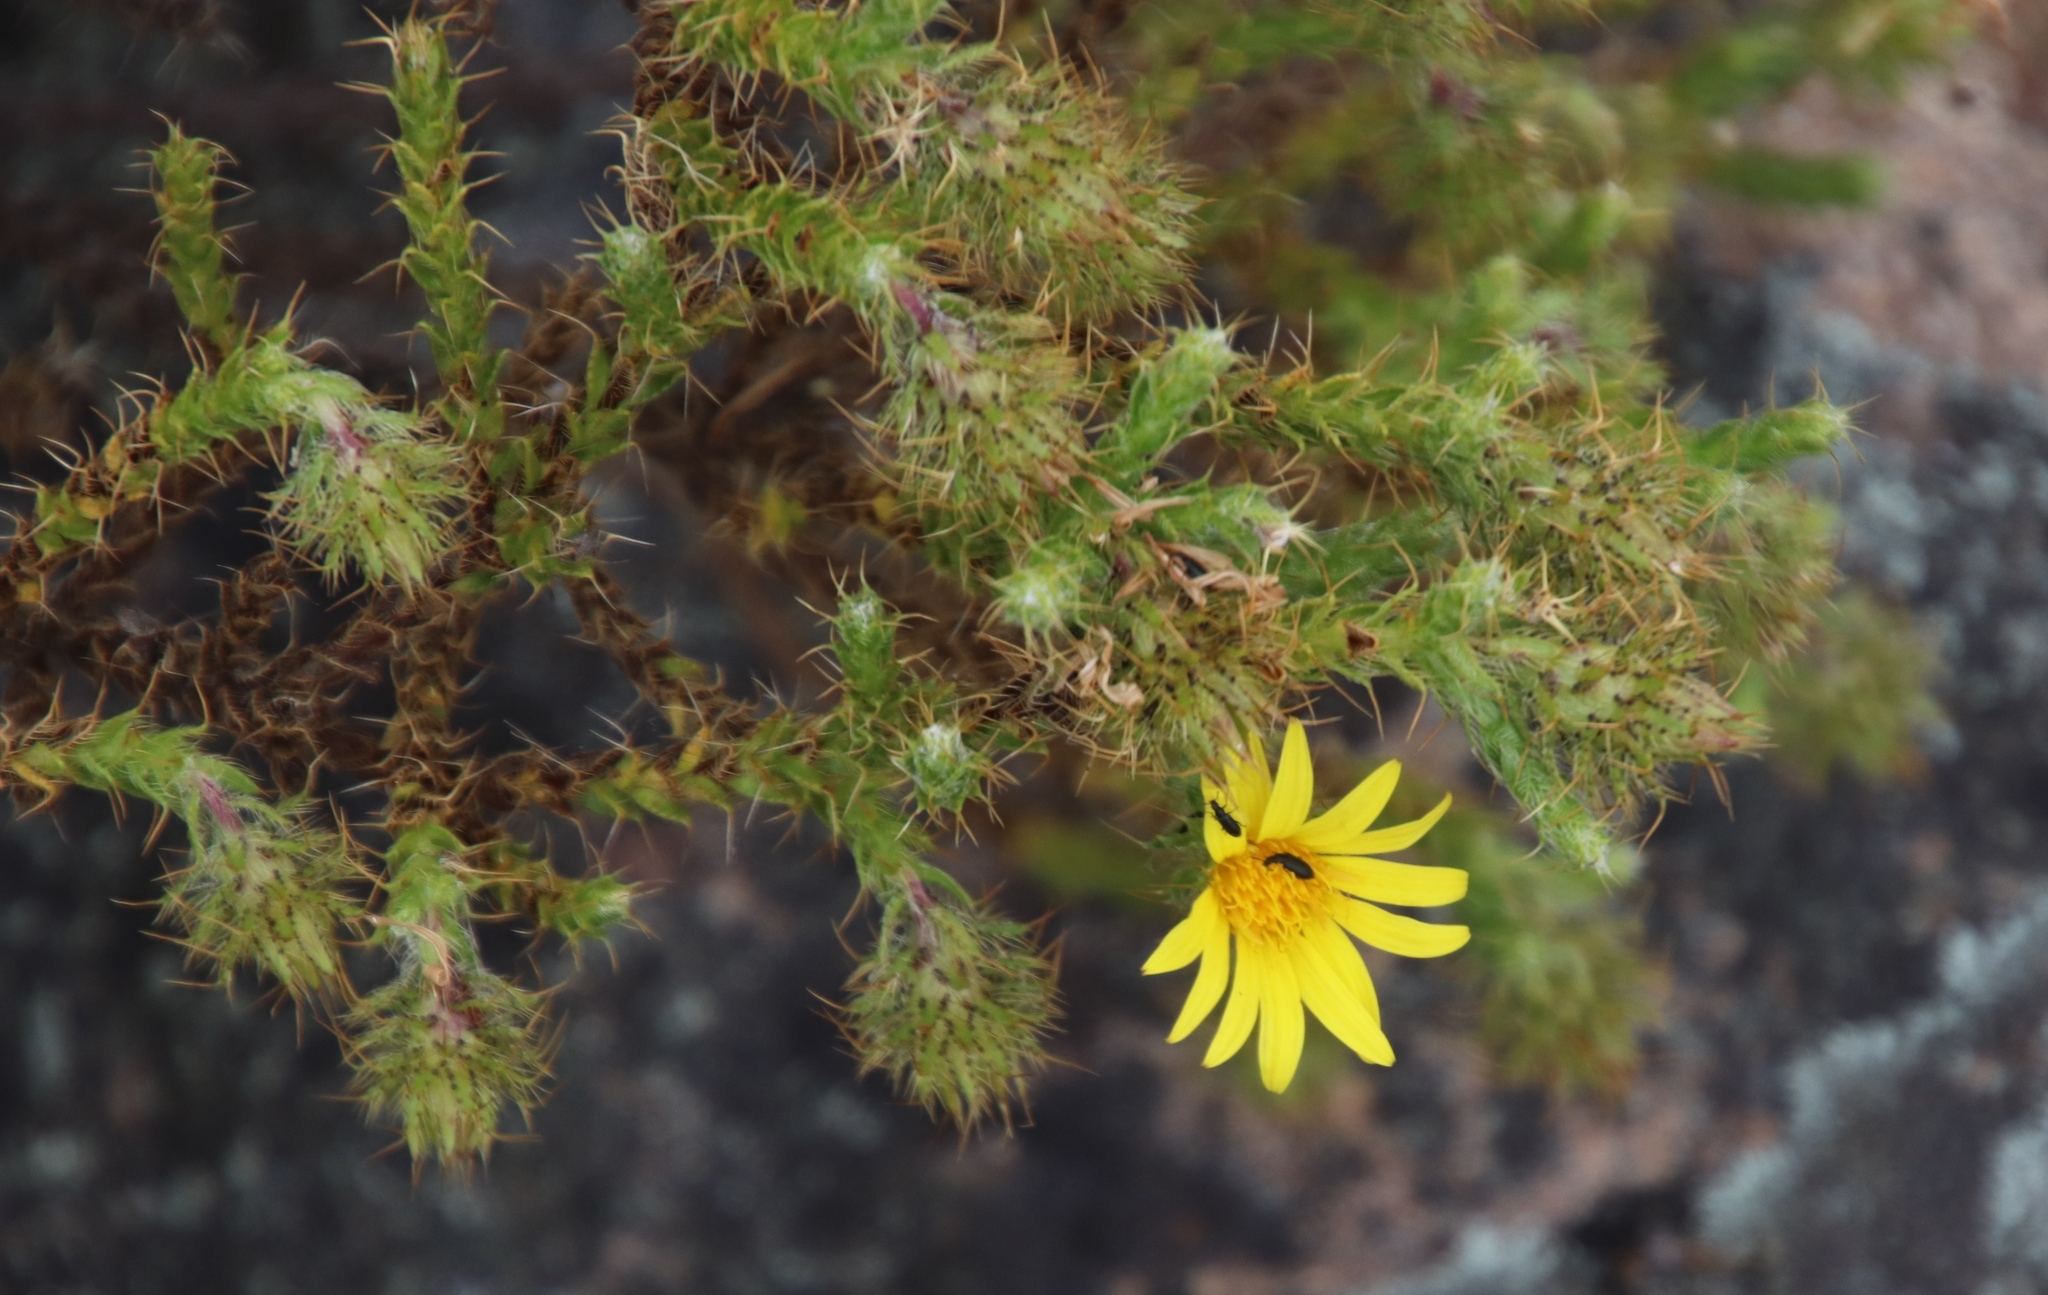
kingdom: Plantae
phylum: Tracheophyta
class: Magnoliopsida
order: Asterales
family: Asteraceae
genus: Cullumia
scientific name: Cullumia reticulata
